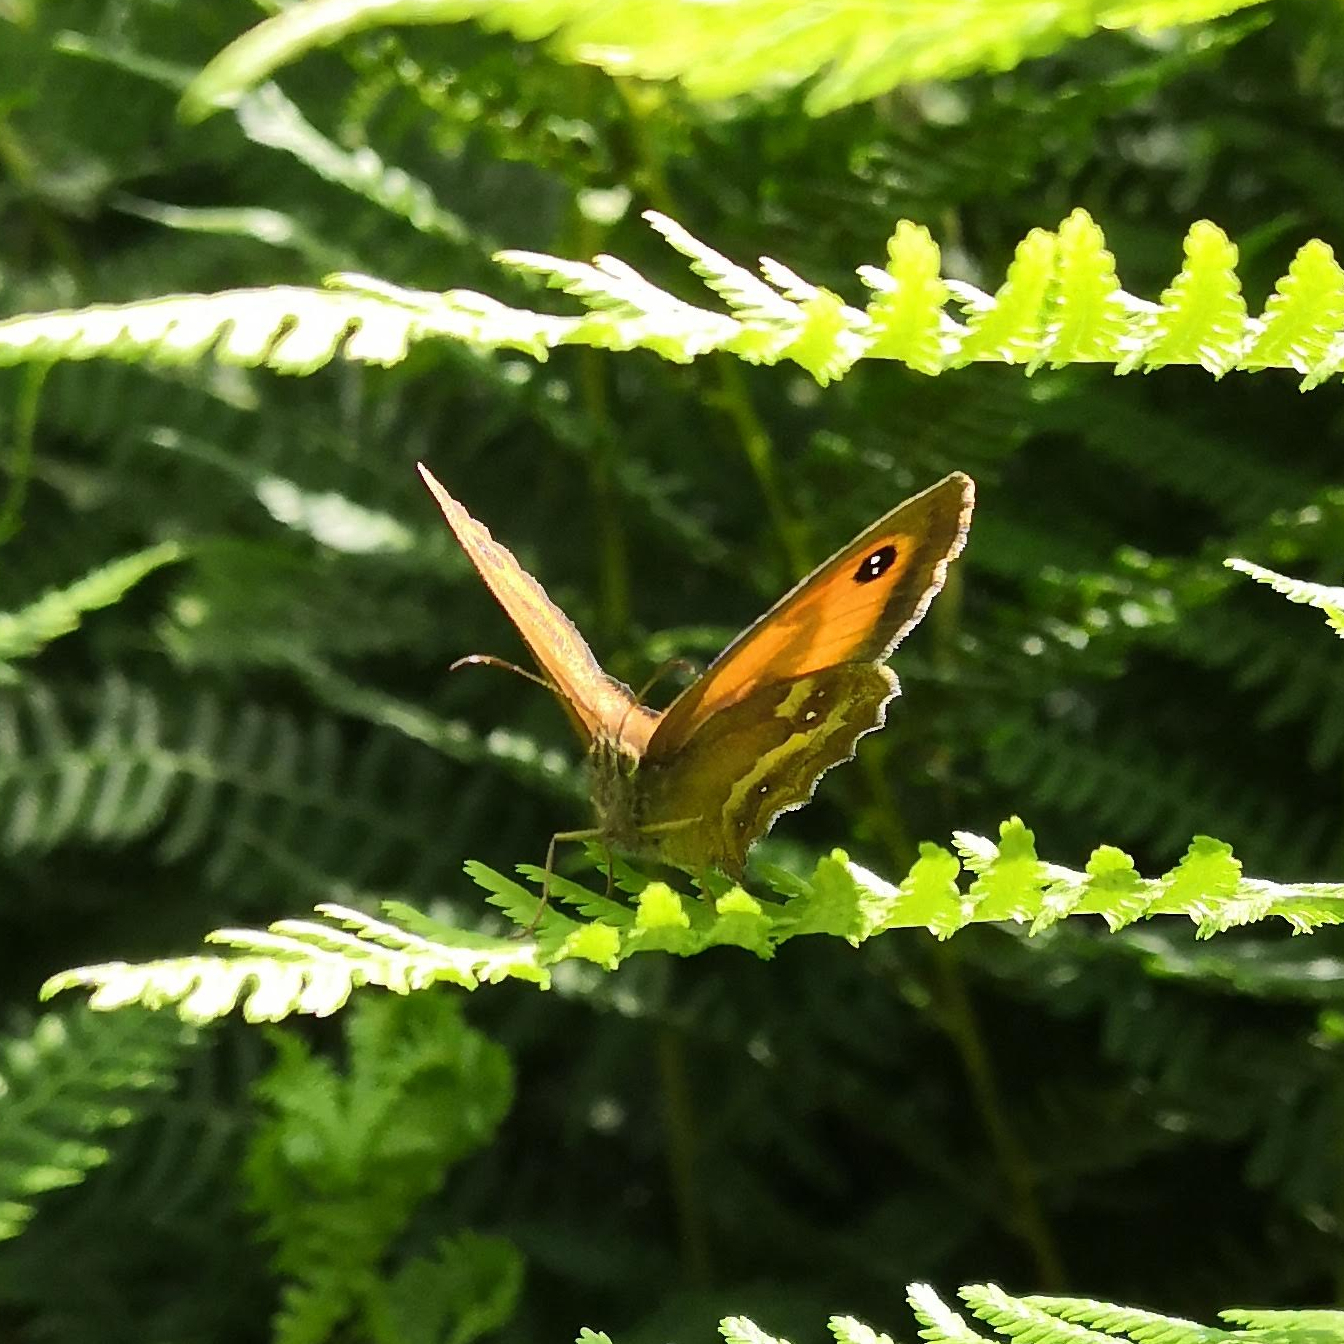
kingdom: Animalia
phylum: Arthropoda
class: Insecta
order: Lepidoptera
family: Nymphalidae
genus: Pyronia
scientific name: Pyronia tithonus
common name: Gatekeeper
